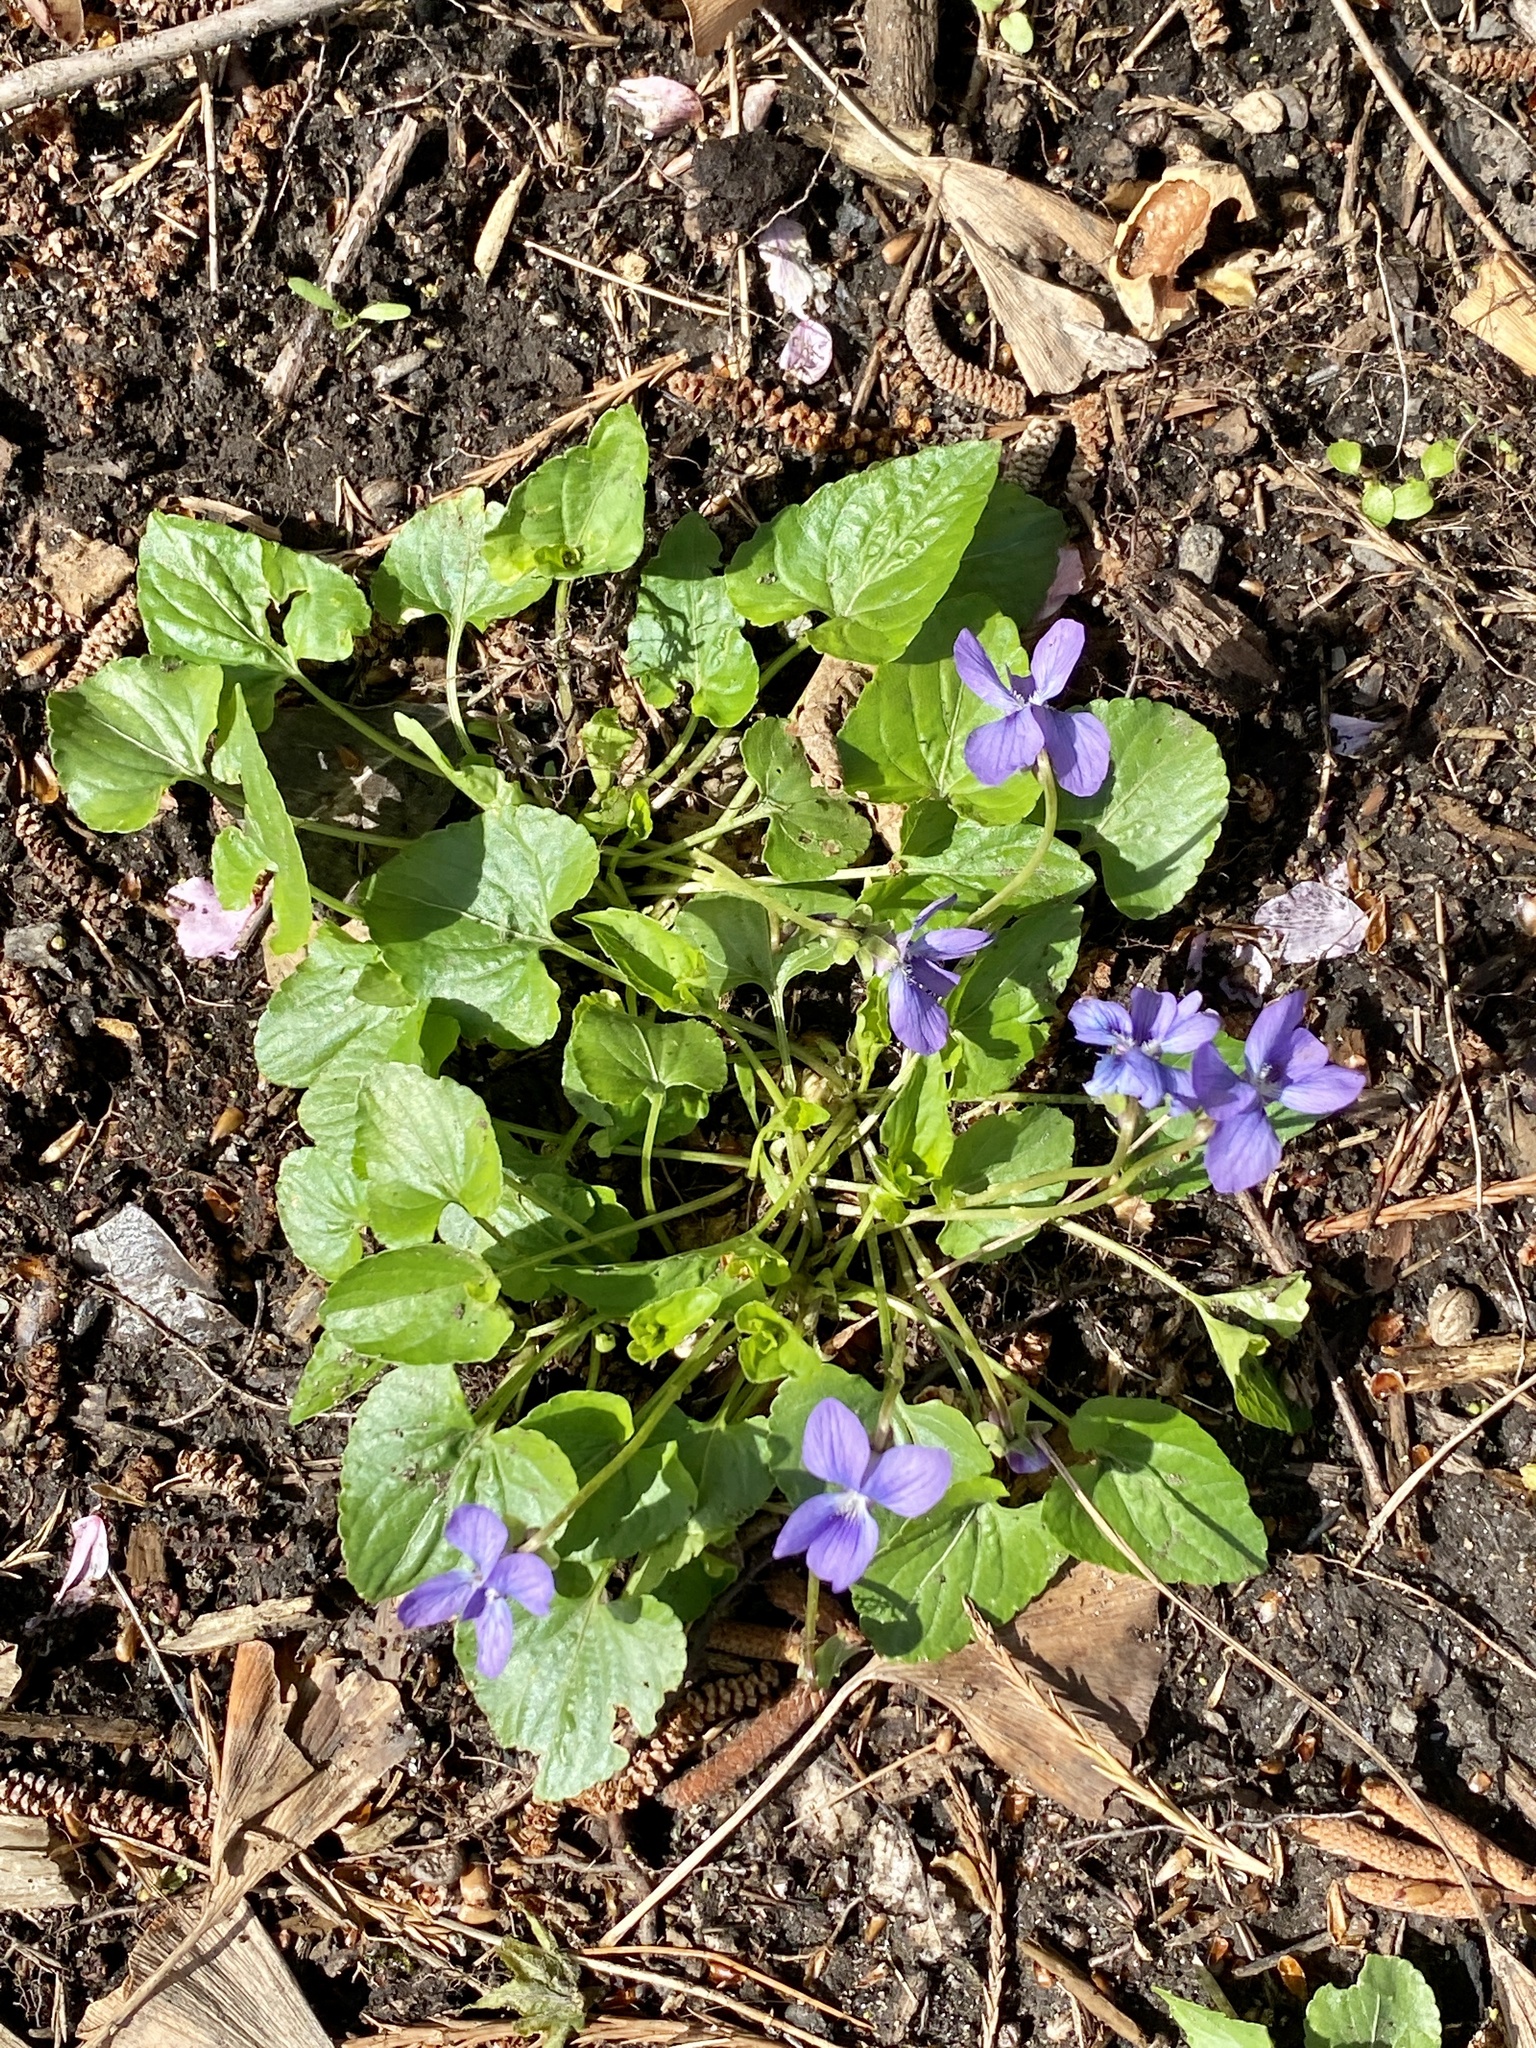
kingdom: Plantae
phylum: Tracheophyta
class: Magnoliopsida
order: Malpighiales
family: Violaceae
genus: Viola
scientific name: Viola sororia
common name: Dooryard violet
